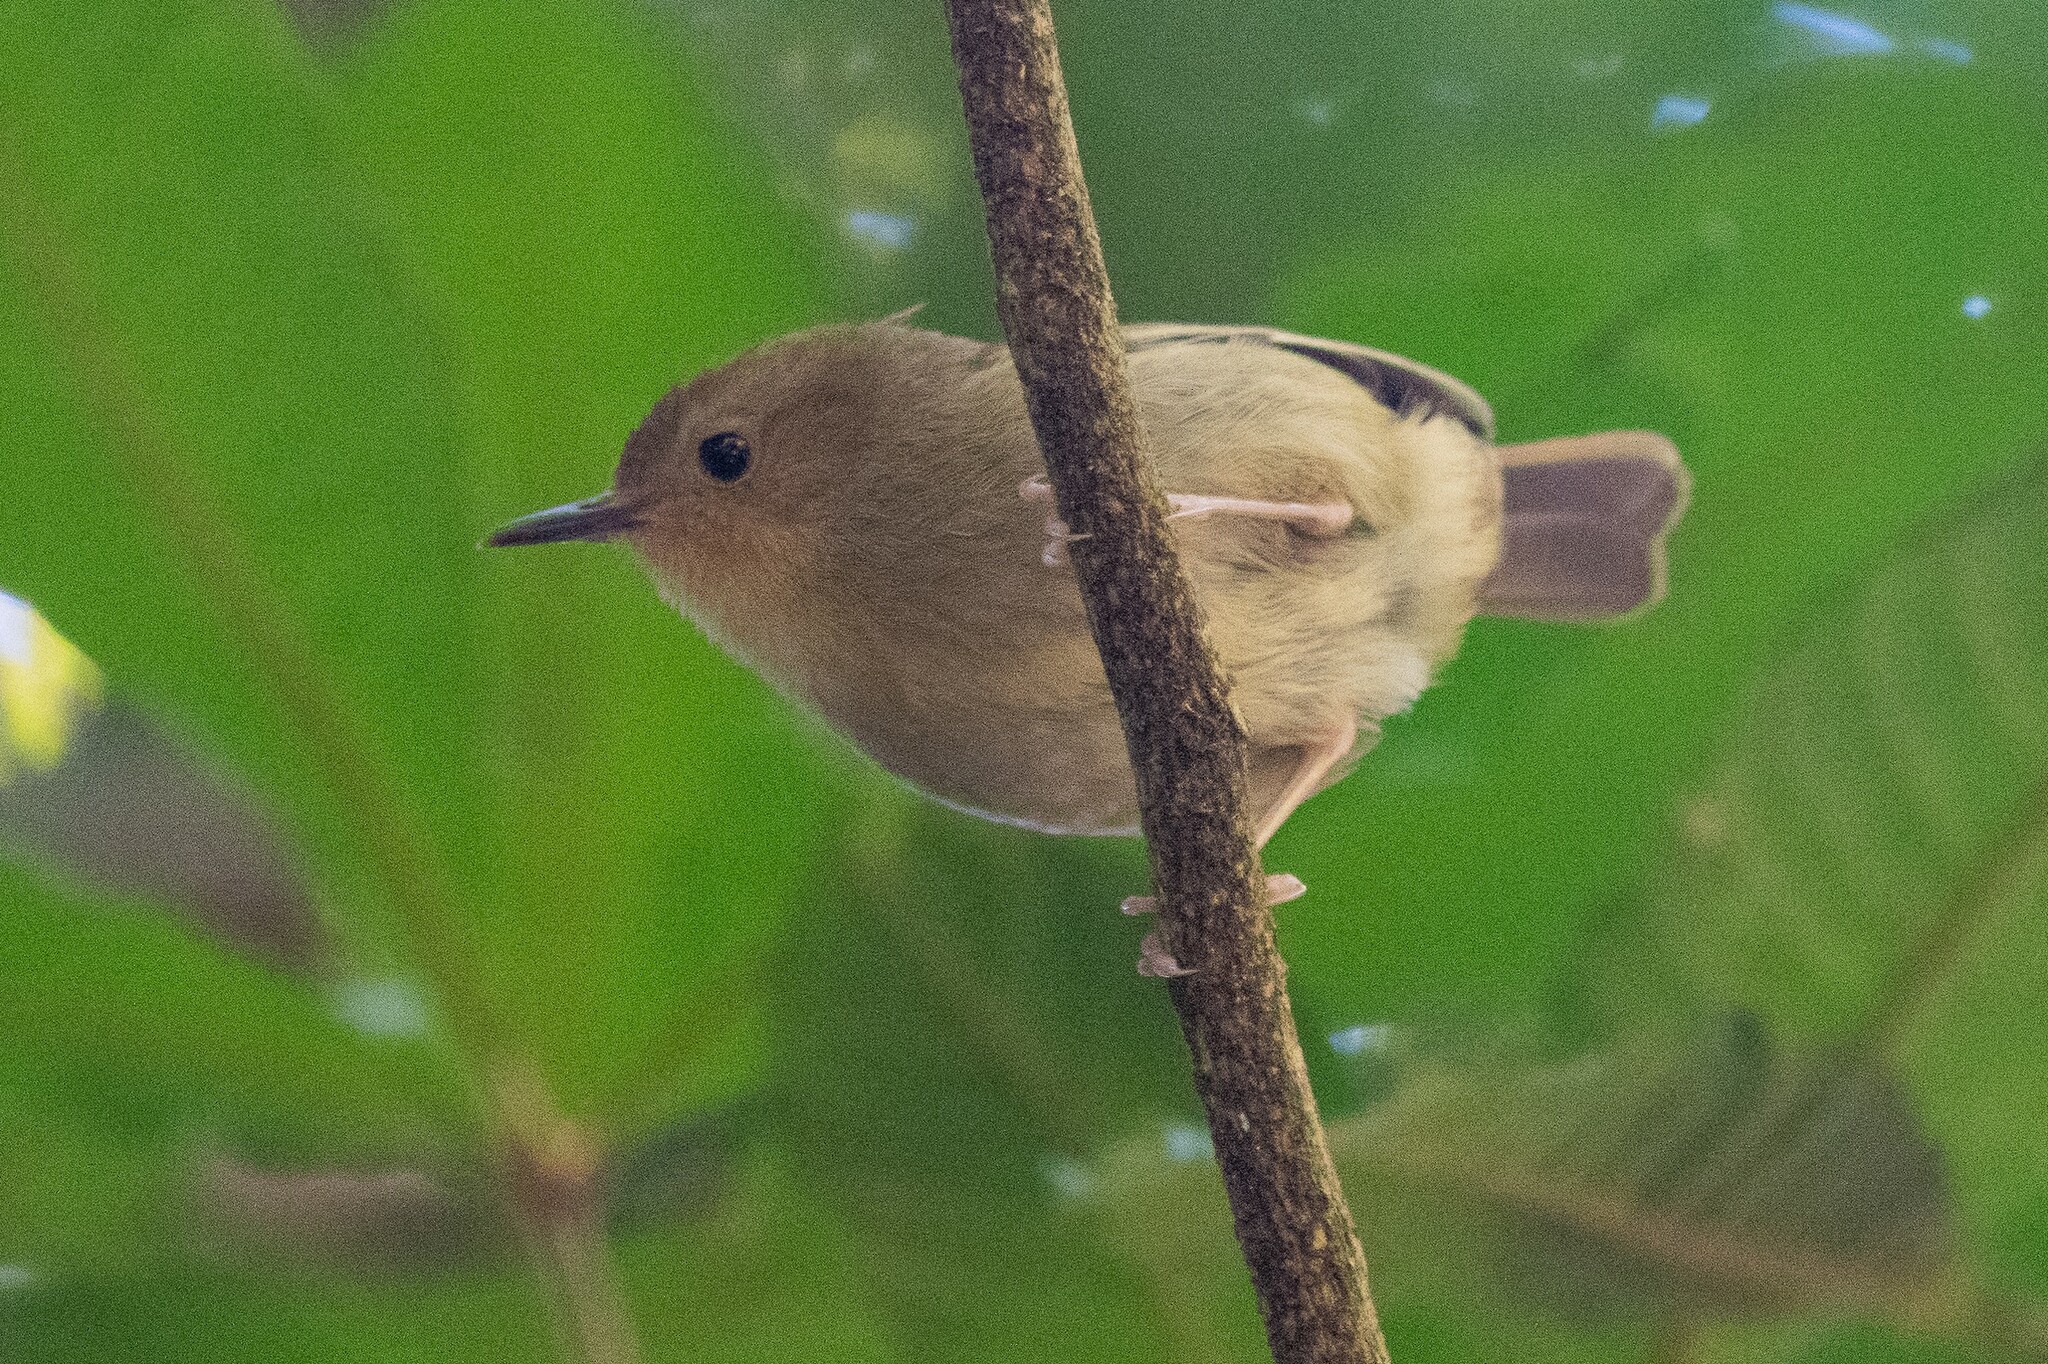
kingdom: Animalia
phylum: Chordata
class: Aves
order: Passeriformes
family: Acanthizidae
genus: Sericornis
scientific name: Sericornis magnirostra
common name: Large-billed scrubwren
